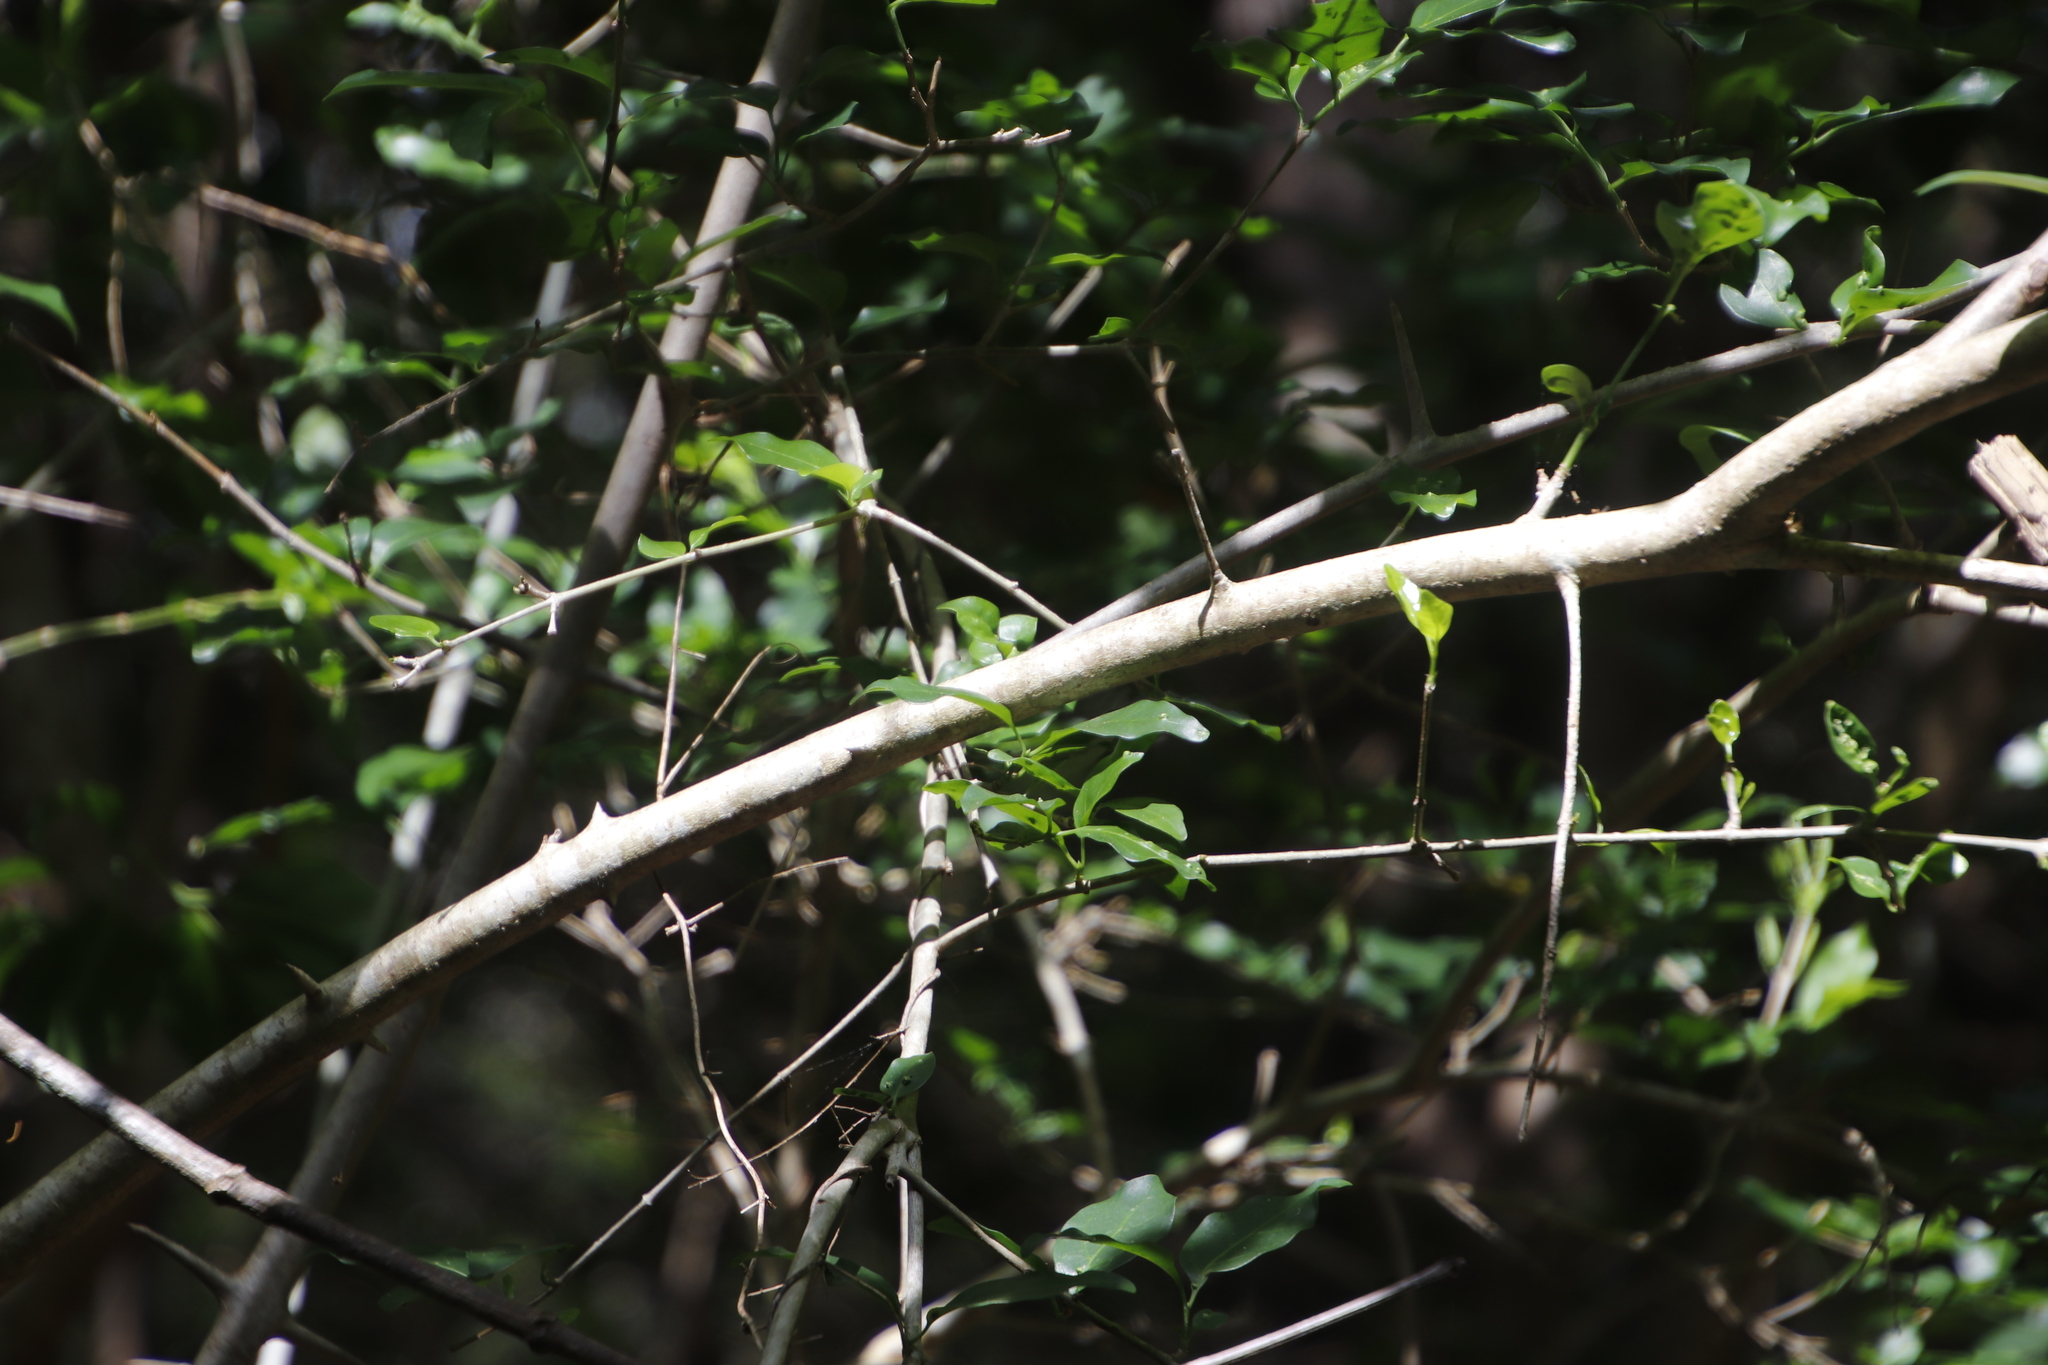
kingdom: Plantae
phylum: Tracheophyta
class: Magnoliopsida
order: Gentianales
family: Rubiaceae
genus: Canthium
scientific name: Canthium inerme
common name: Unarmed turkey-berry
